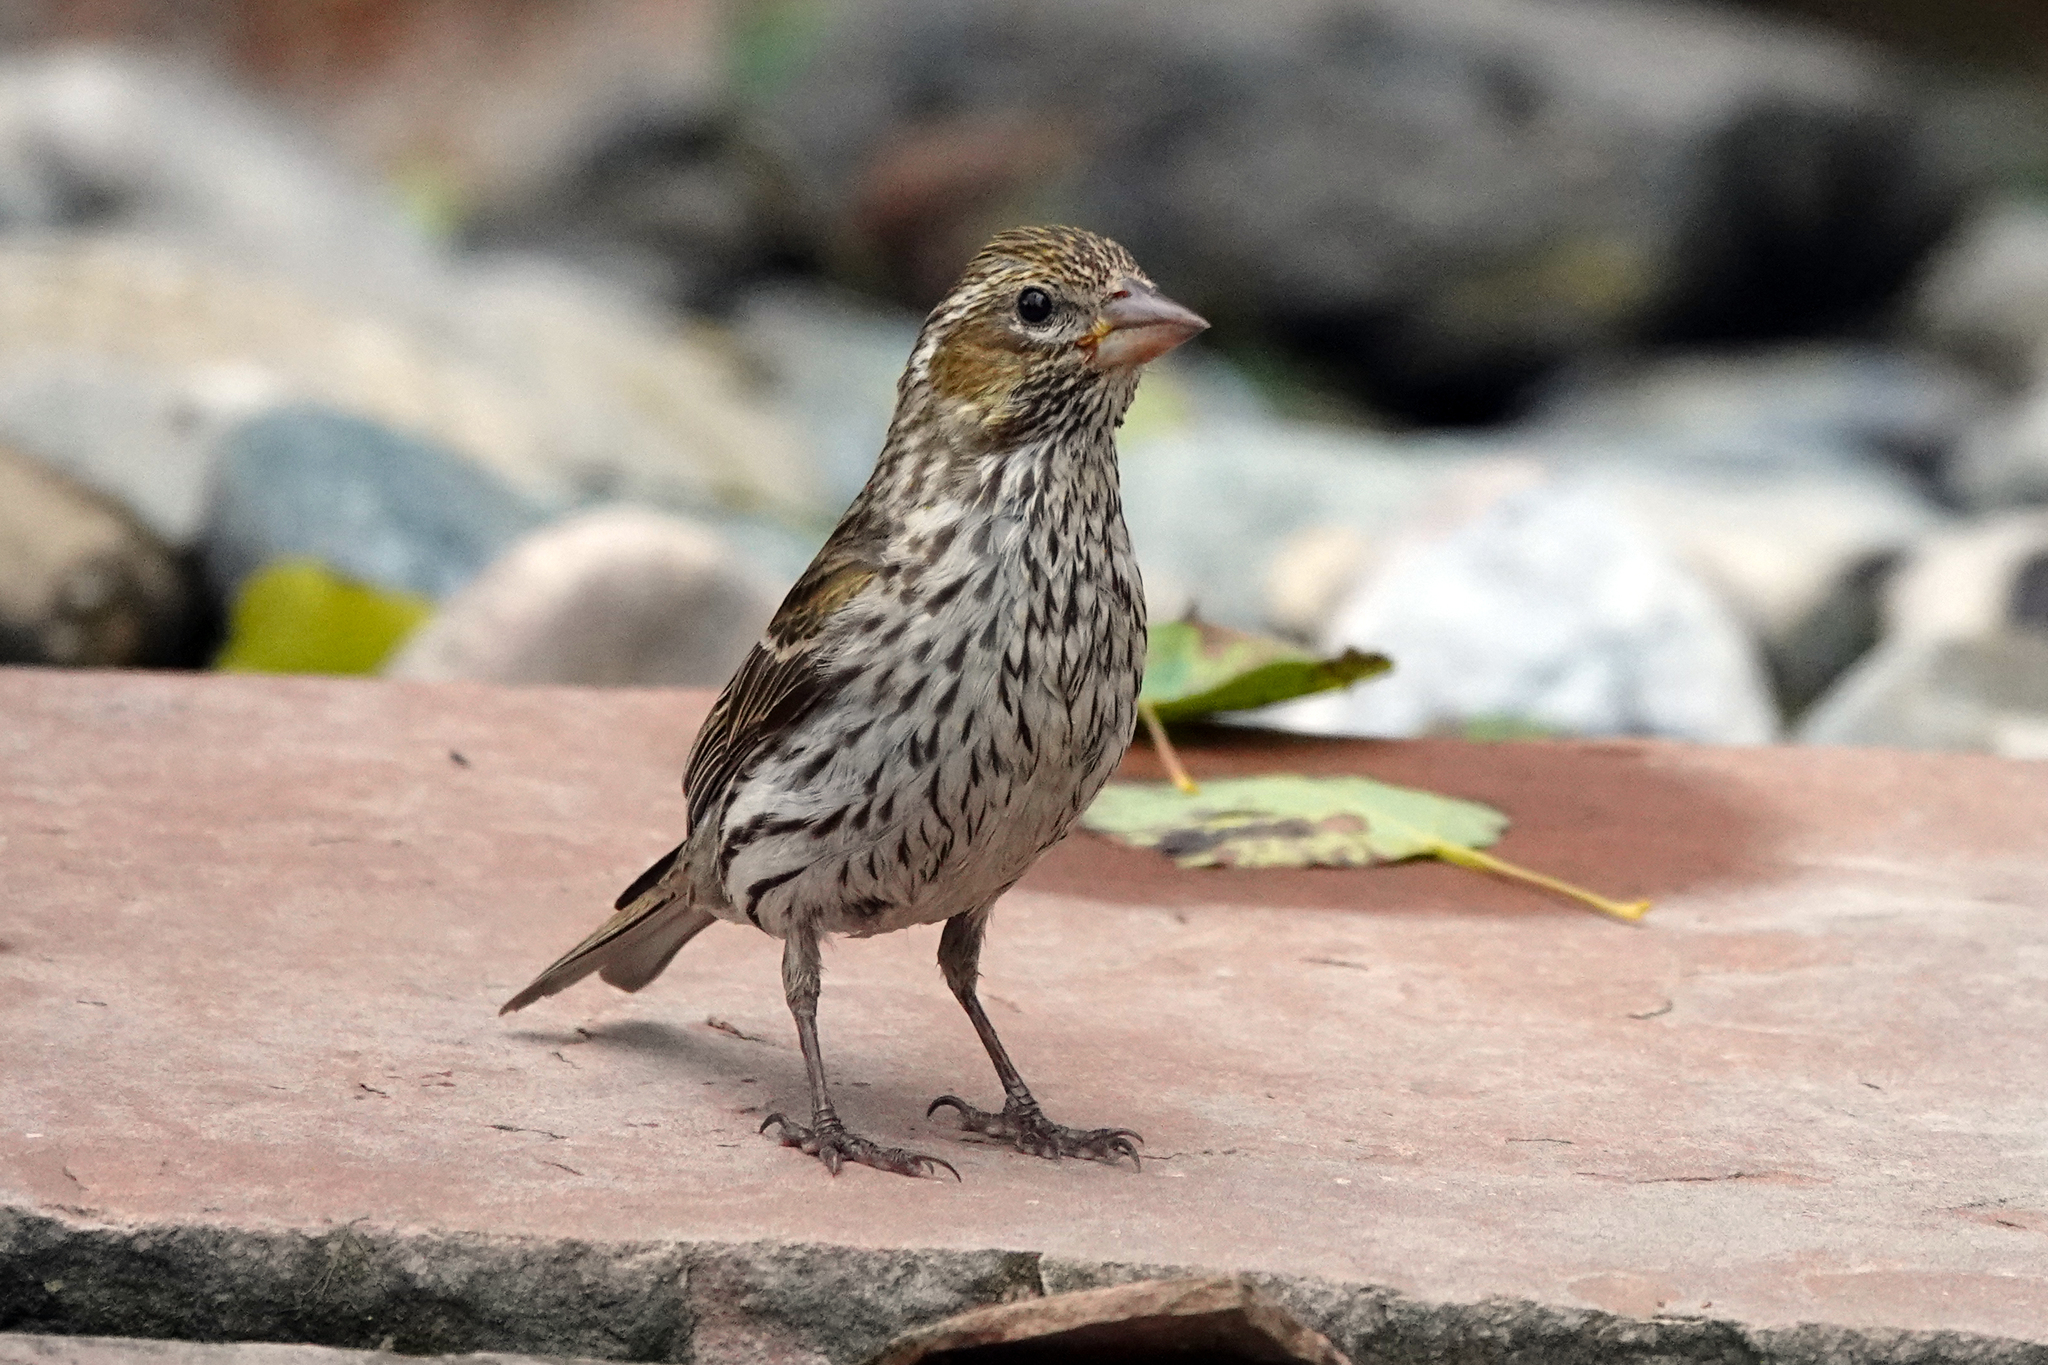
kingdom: Animalia
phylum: Chordata
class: Aves
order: Passeriformes
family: Fringillidae
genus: Haemorhous
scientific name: Haemorhous cassinii
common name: Cassin's finch
